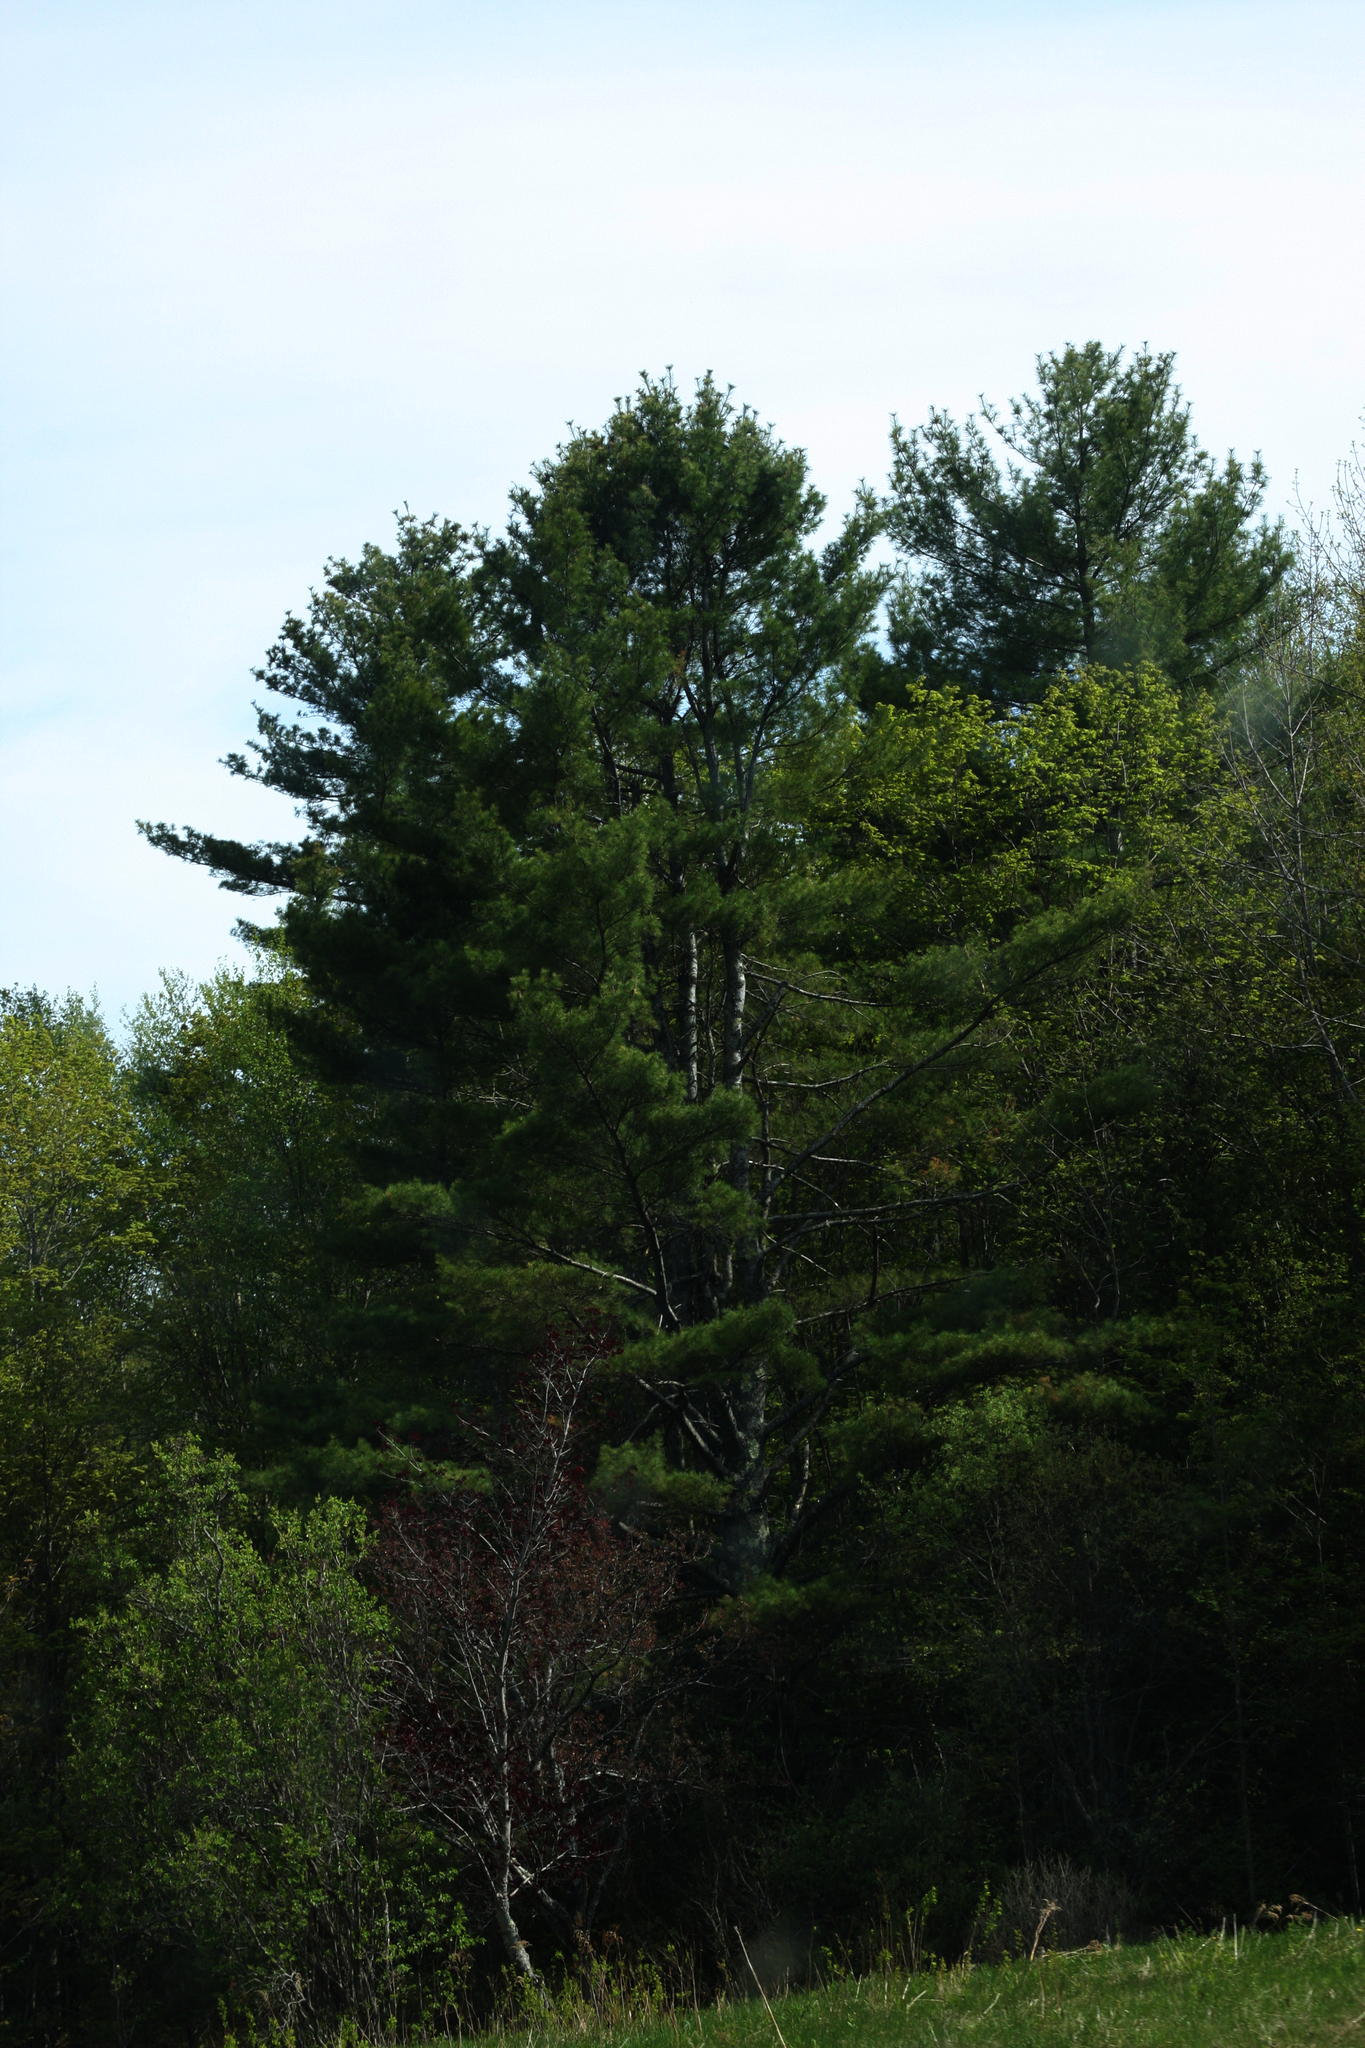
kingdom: Plantae
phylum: Tracheophyta
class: Pinopsida
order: Pinales
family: Pinaceae
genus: Pinus
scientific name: Pinus strobus
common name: Weymouth pine
